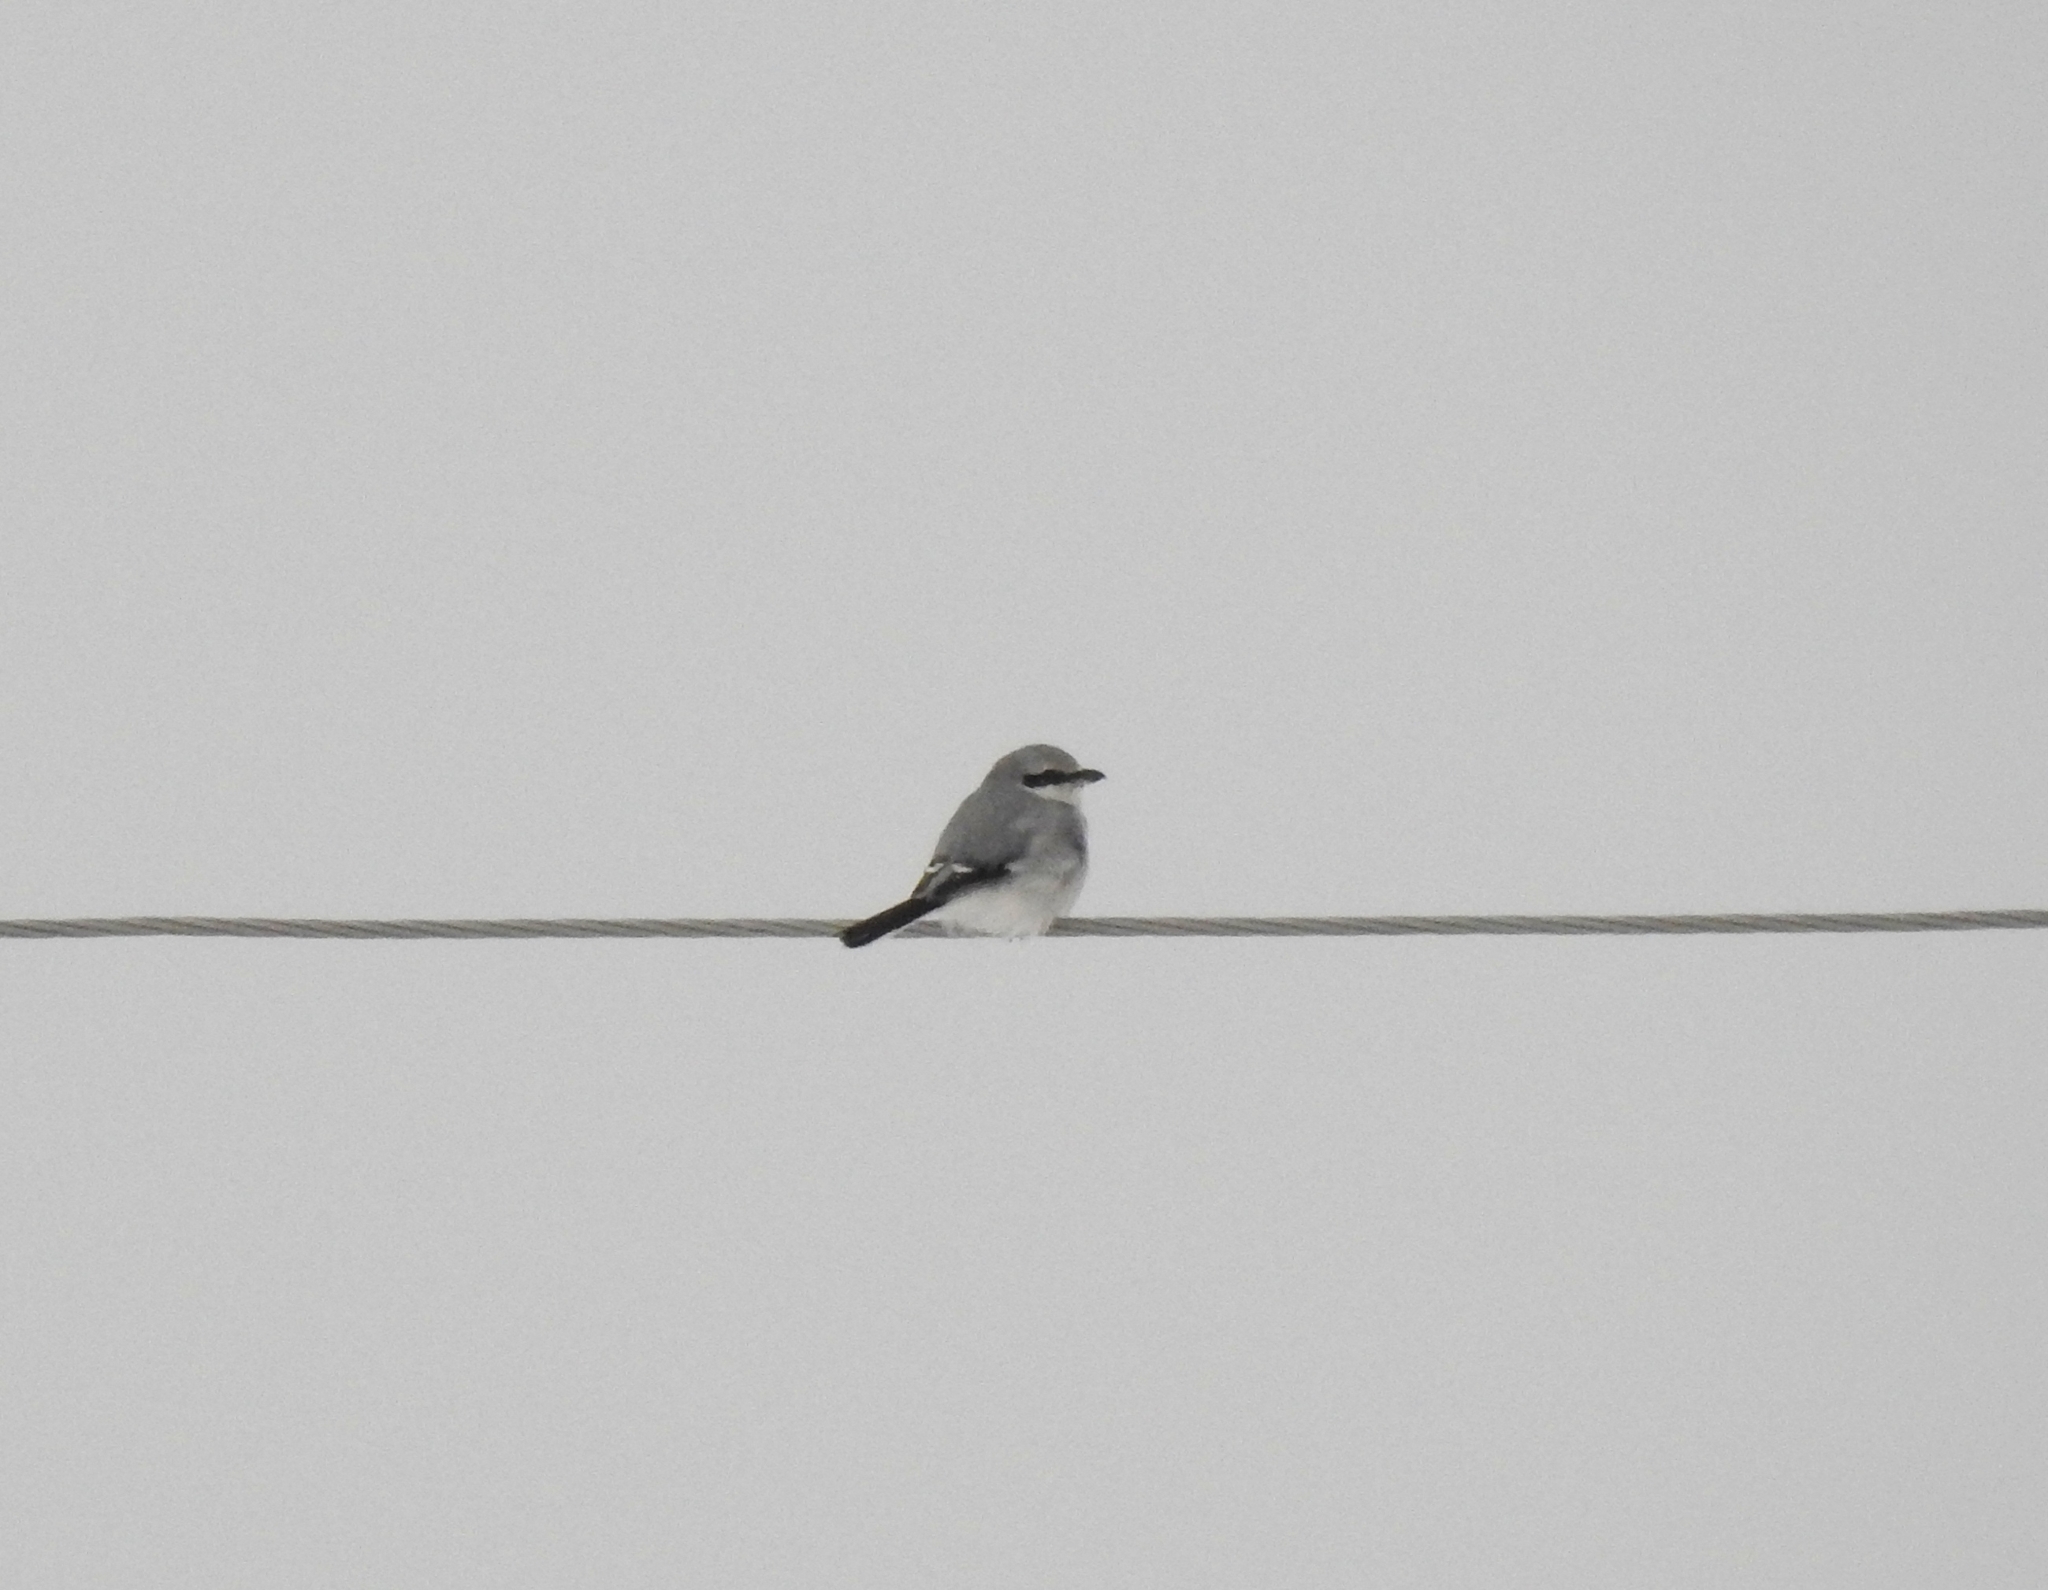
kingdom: Animalia
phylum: Chordata
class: Aves
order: Passeriformes
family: Laniidae
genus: Lanius
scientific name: Lanius excubitor
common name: Great grey shrike
